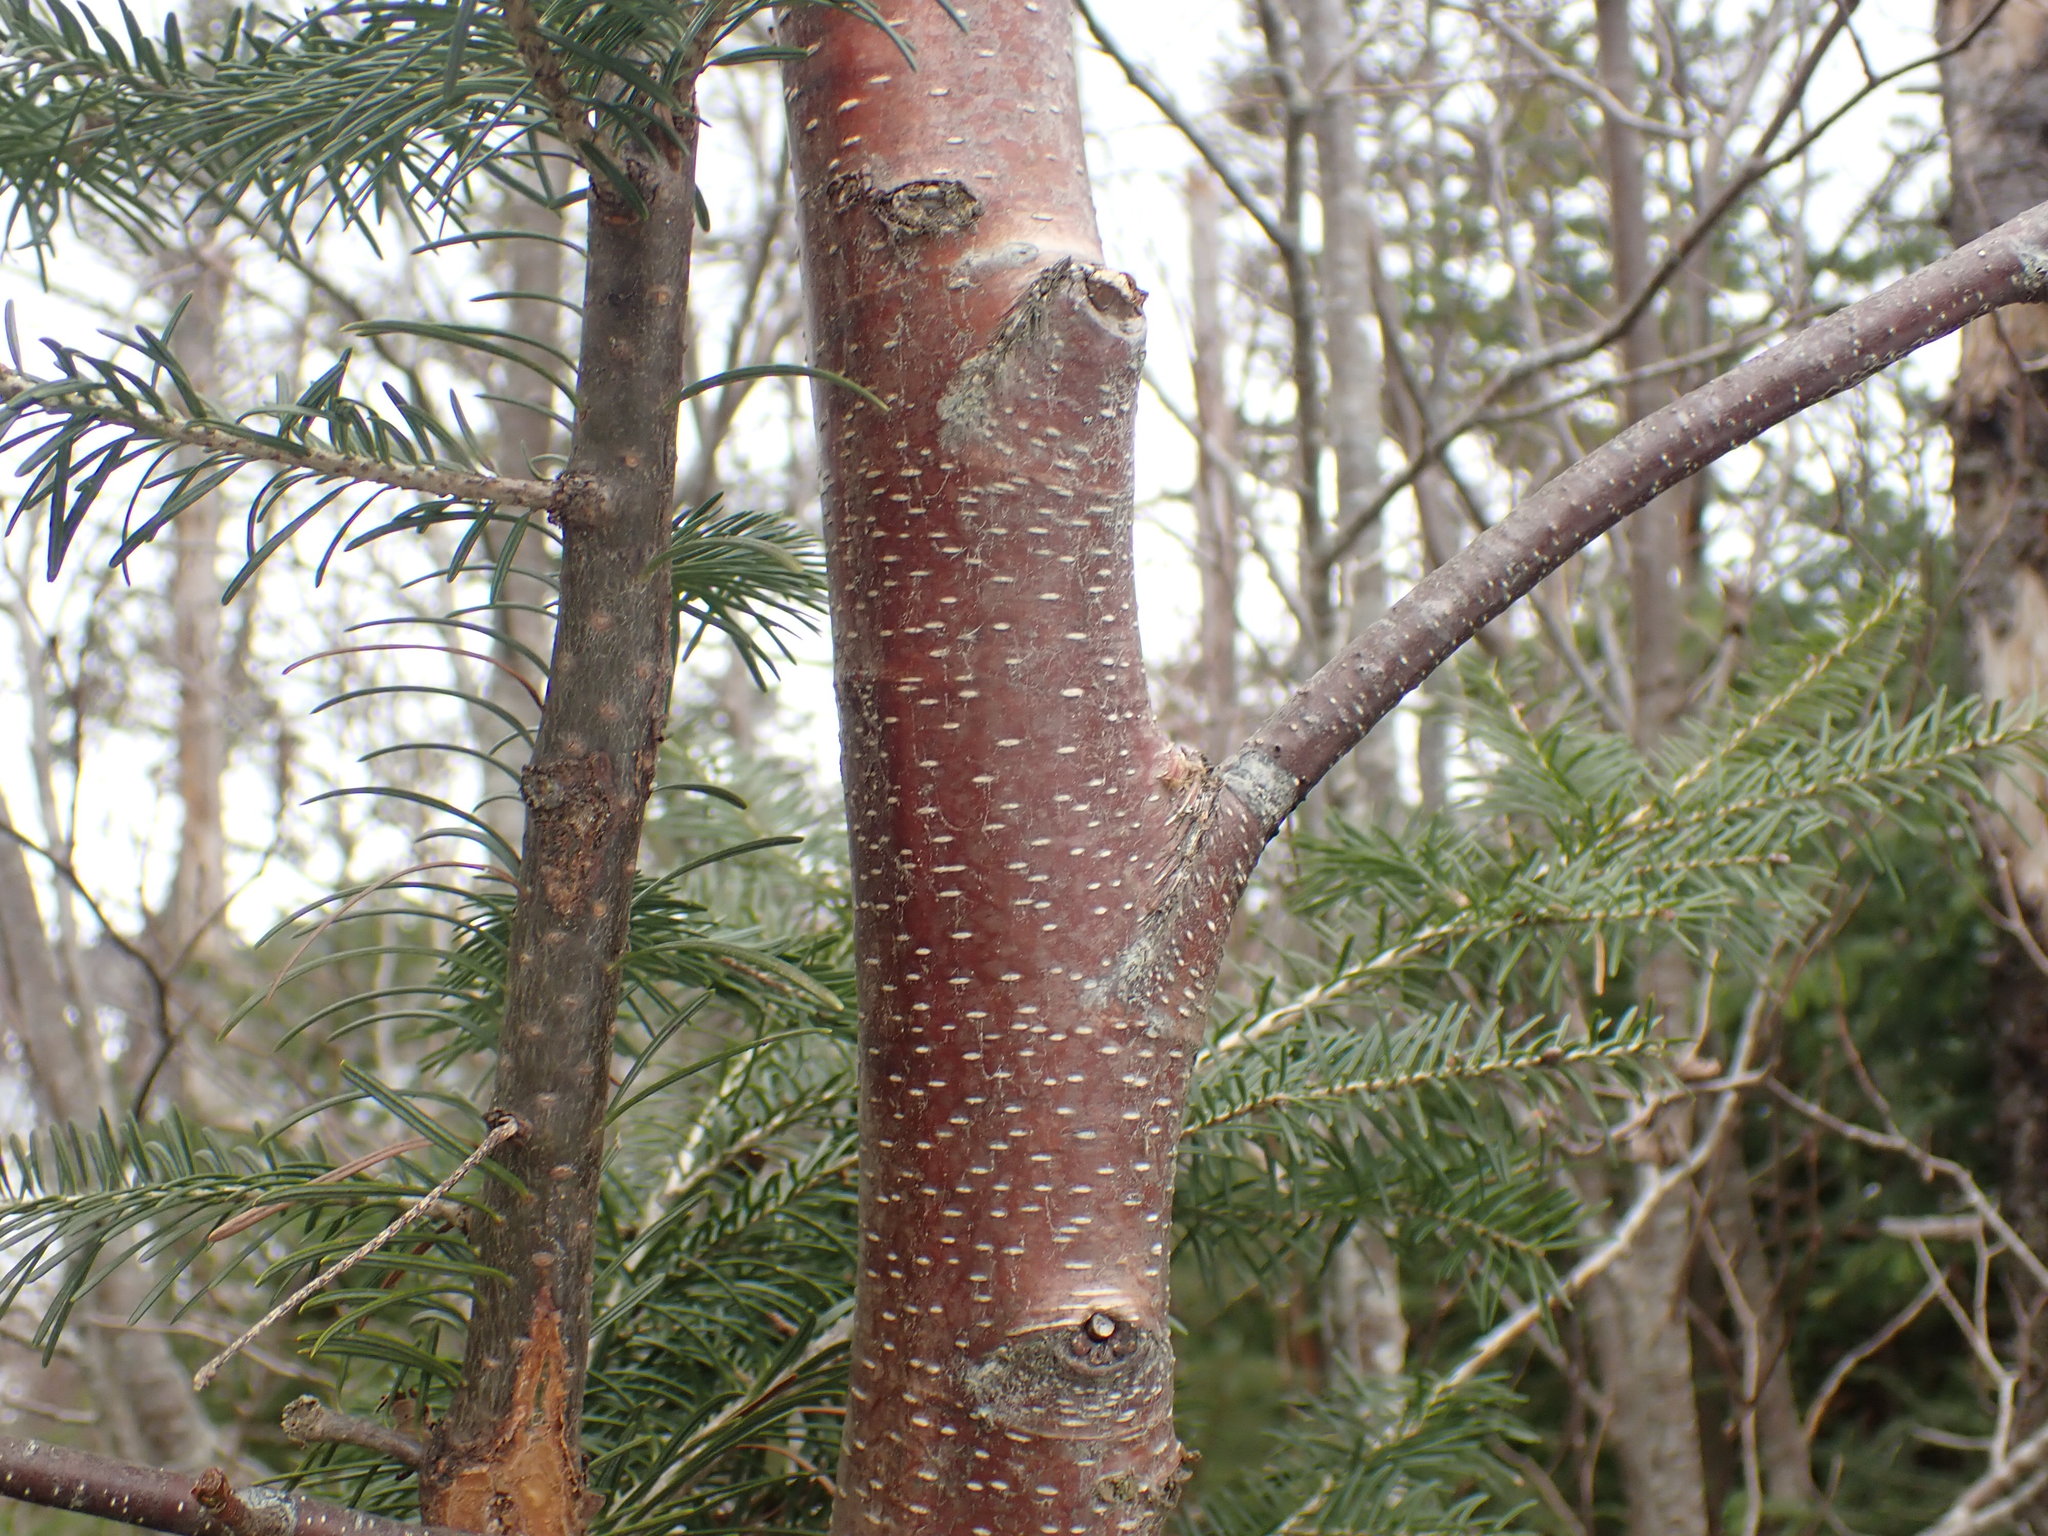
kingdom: Plantae
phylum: Tracheophyta
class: Magnoliopsida
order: Fagales
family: Betulaceae
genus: Betula
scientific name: Betula papyrifera
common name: Paper birch
